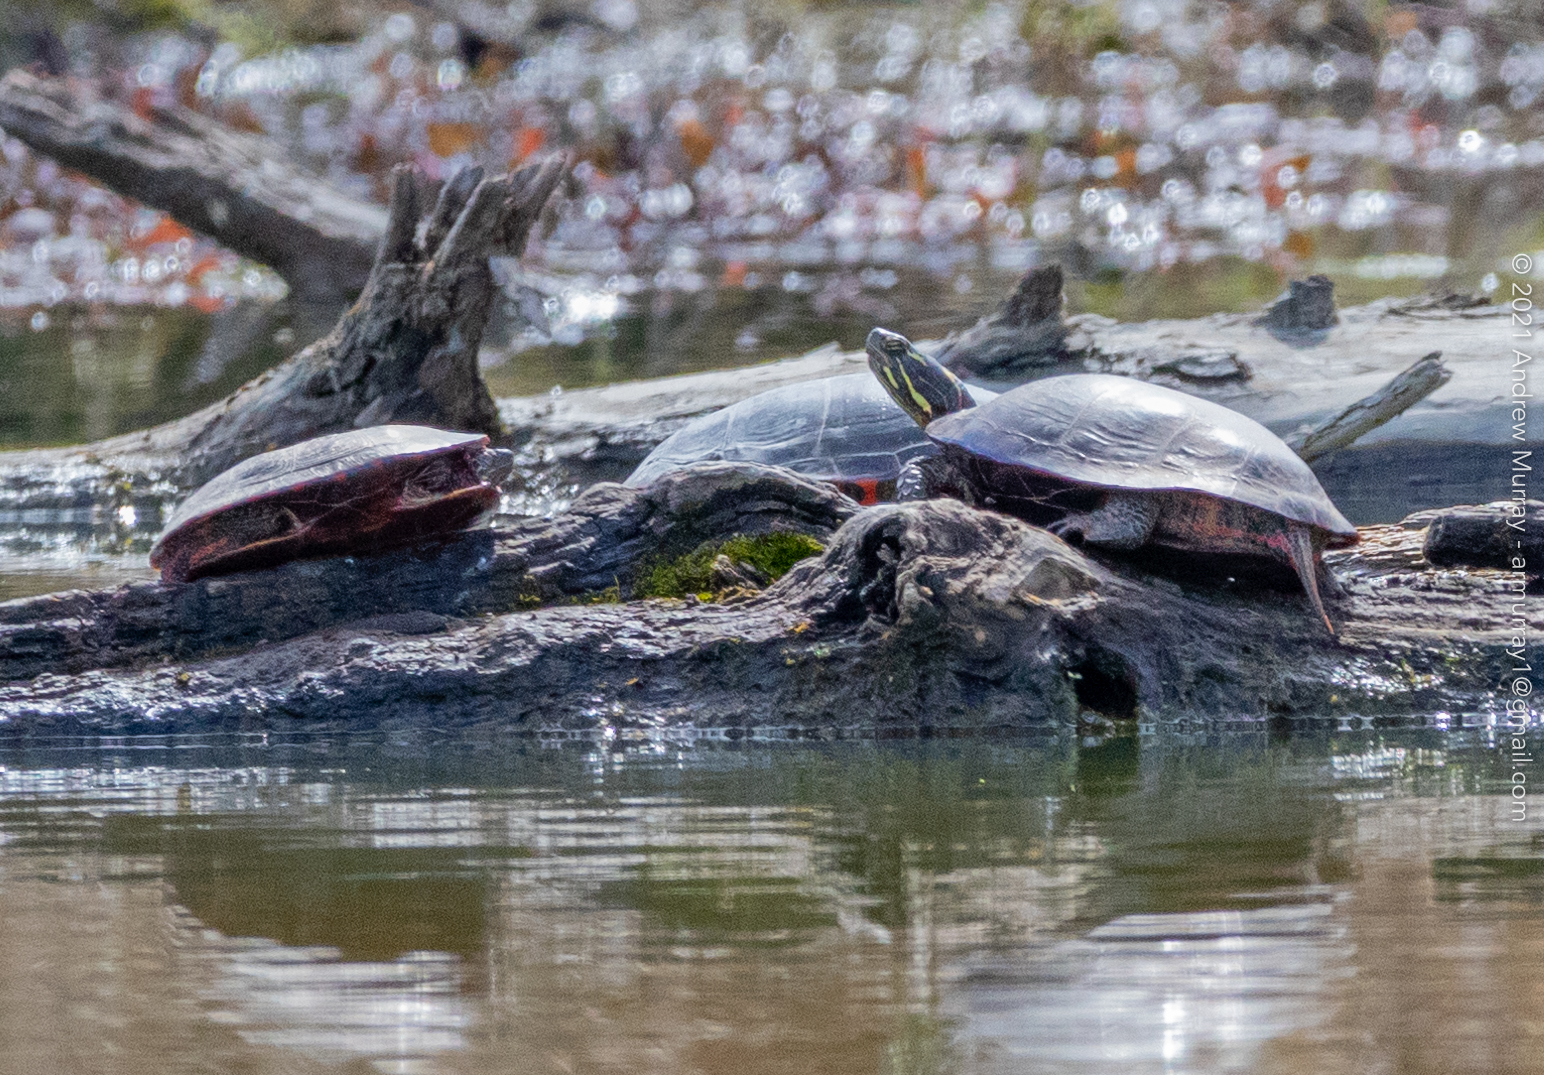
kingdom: Animalia
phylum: Chordata
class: Testudines
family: Emydidae
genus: Chrysemys
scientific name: Chrysemys picta
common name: Painted turtle
